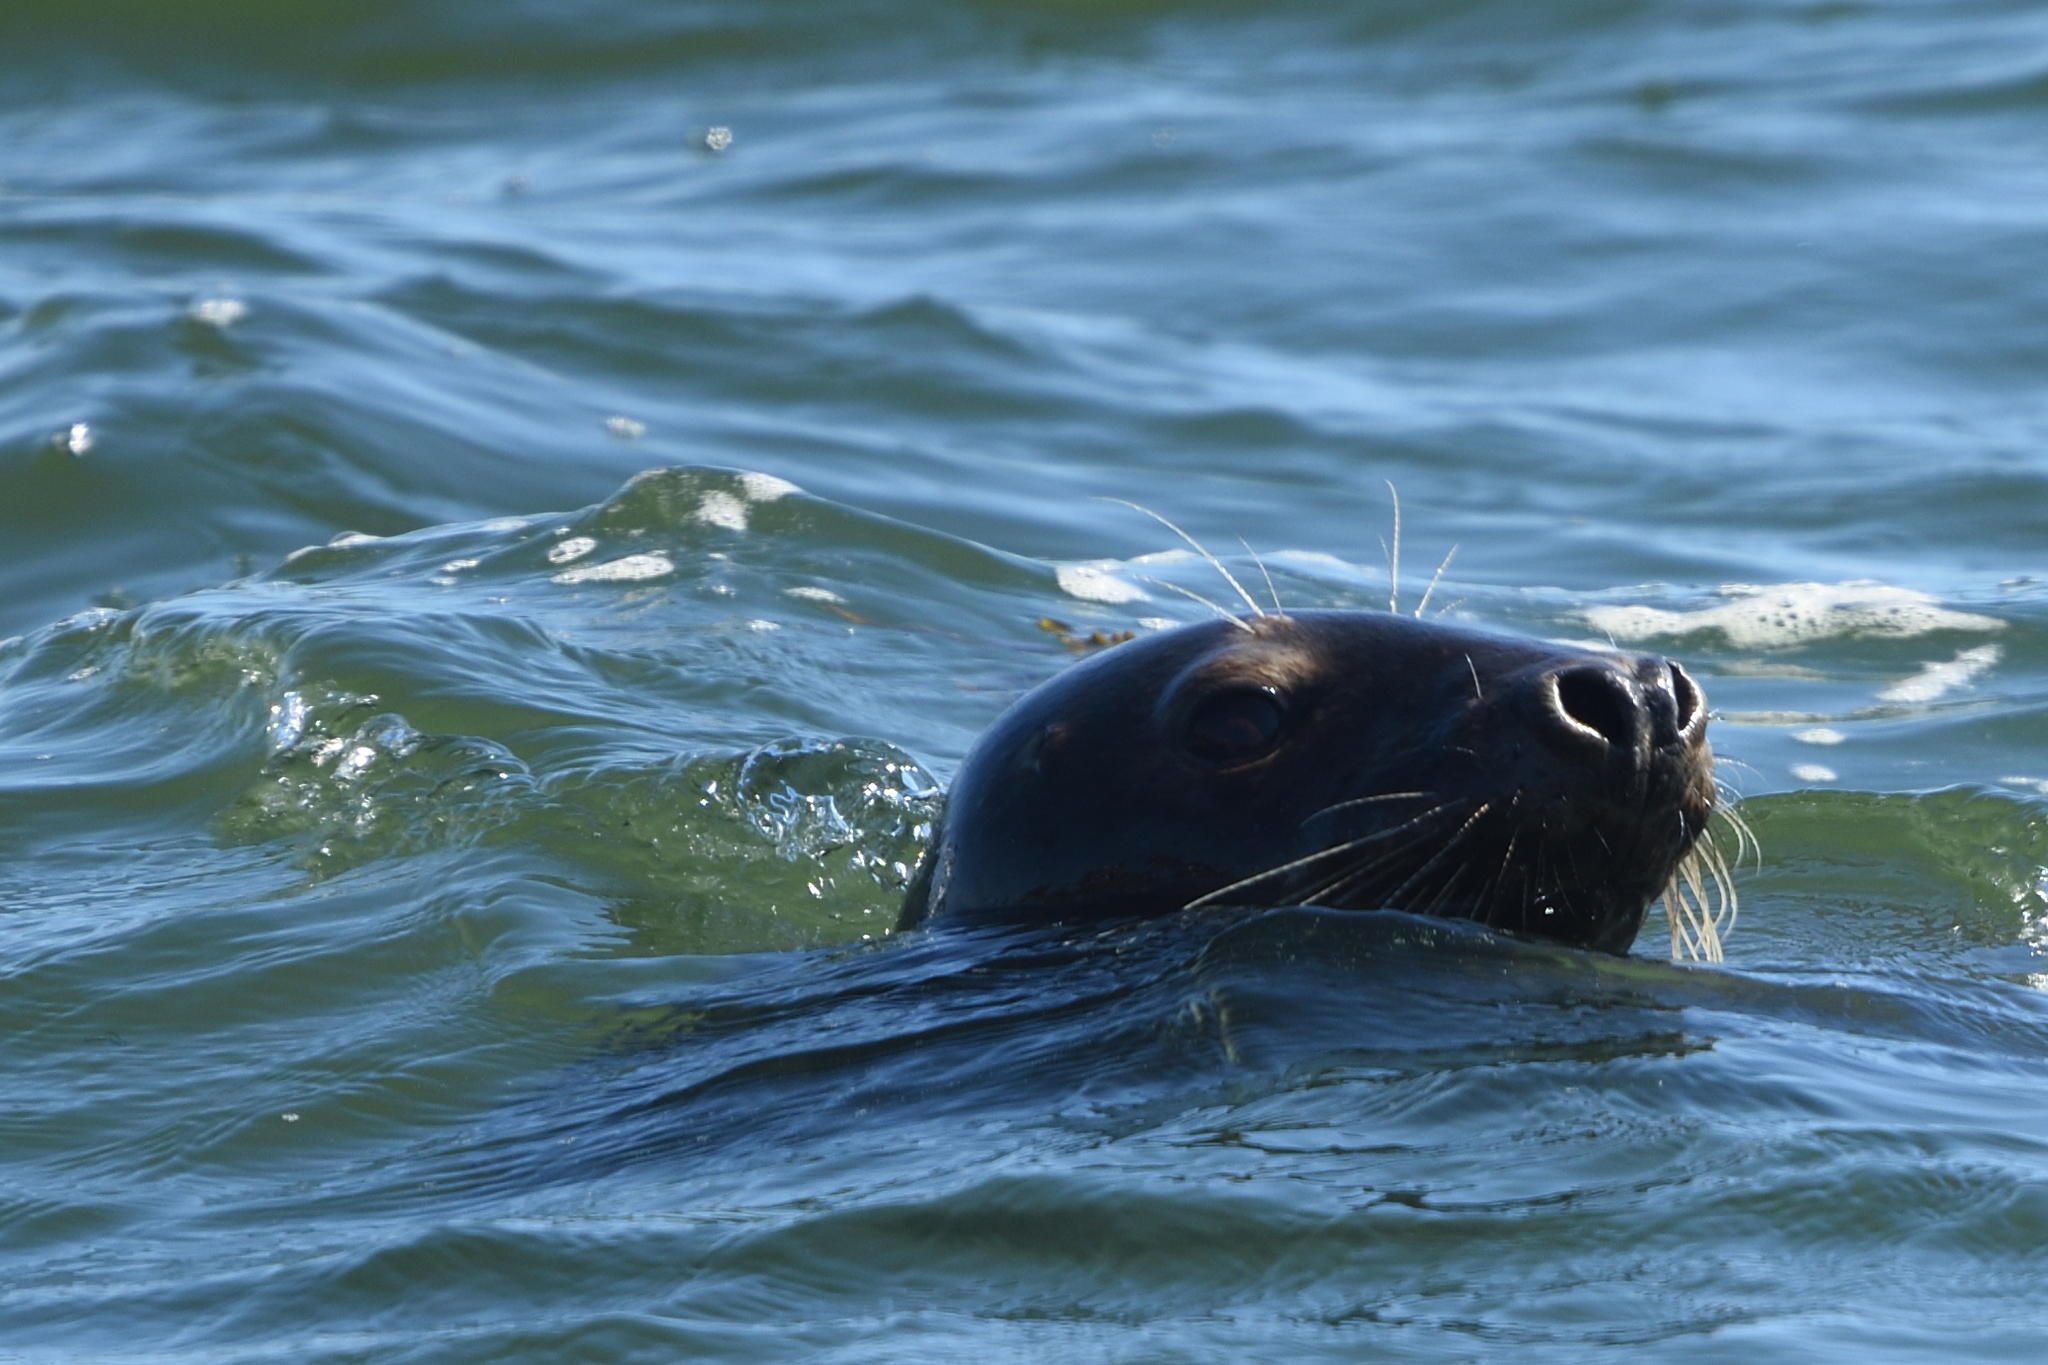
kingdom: Animalia
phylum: Chordata
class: Mammalia
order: Carnivora
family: Phocidae
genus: Halichoerus
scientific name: Halichoerus grypus
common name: Grey seal
